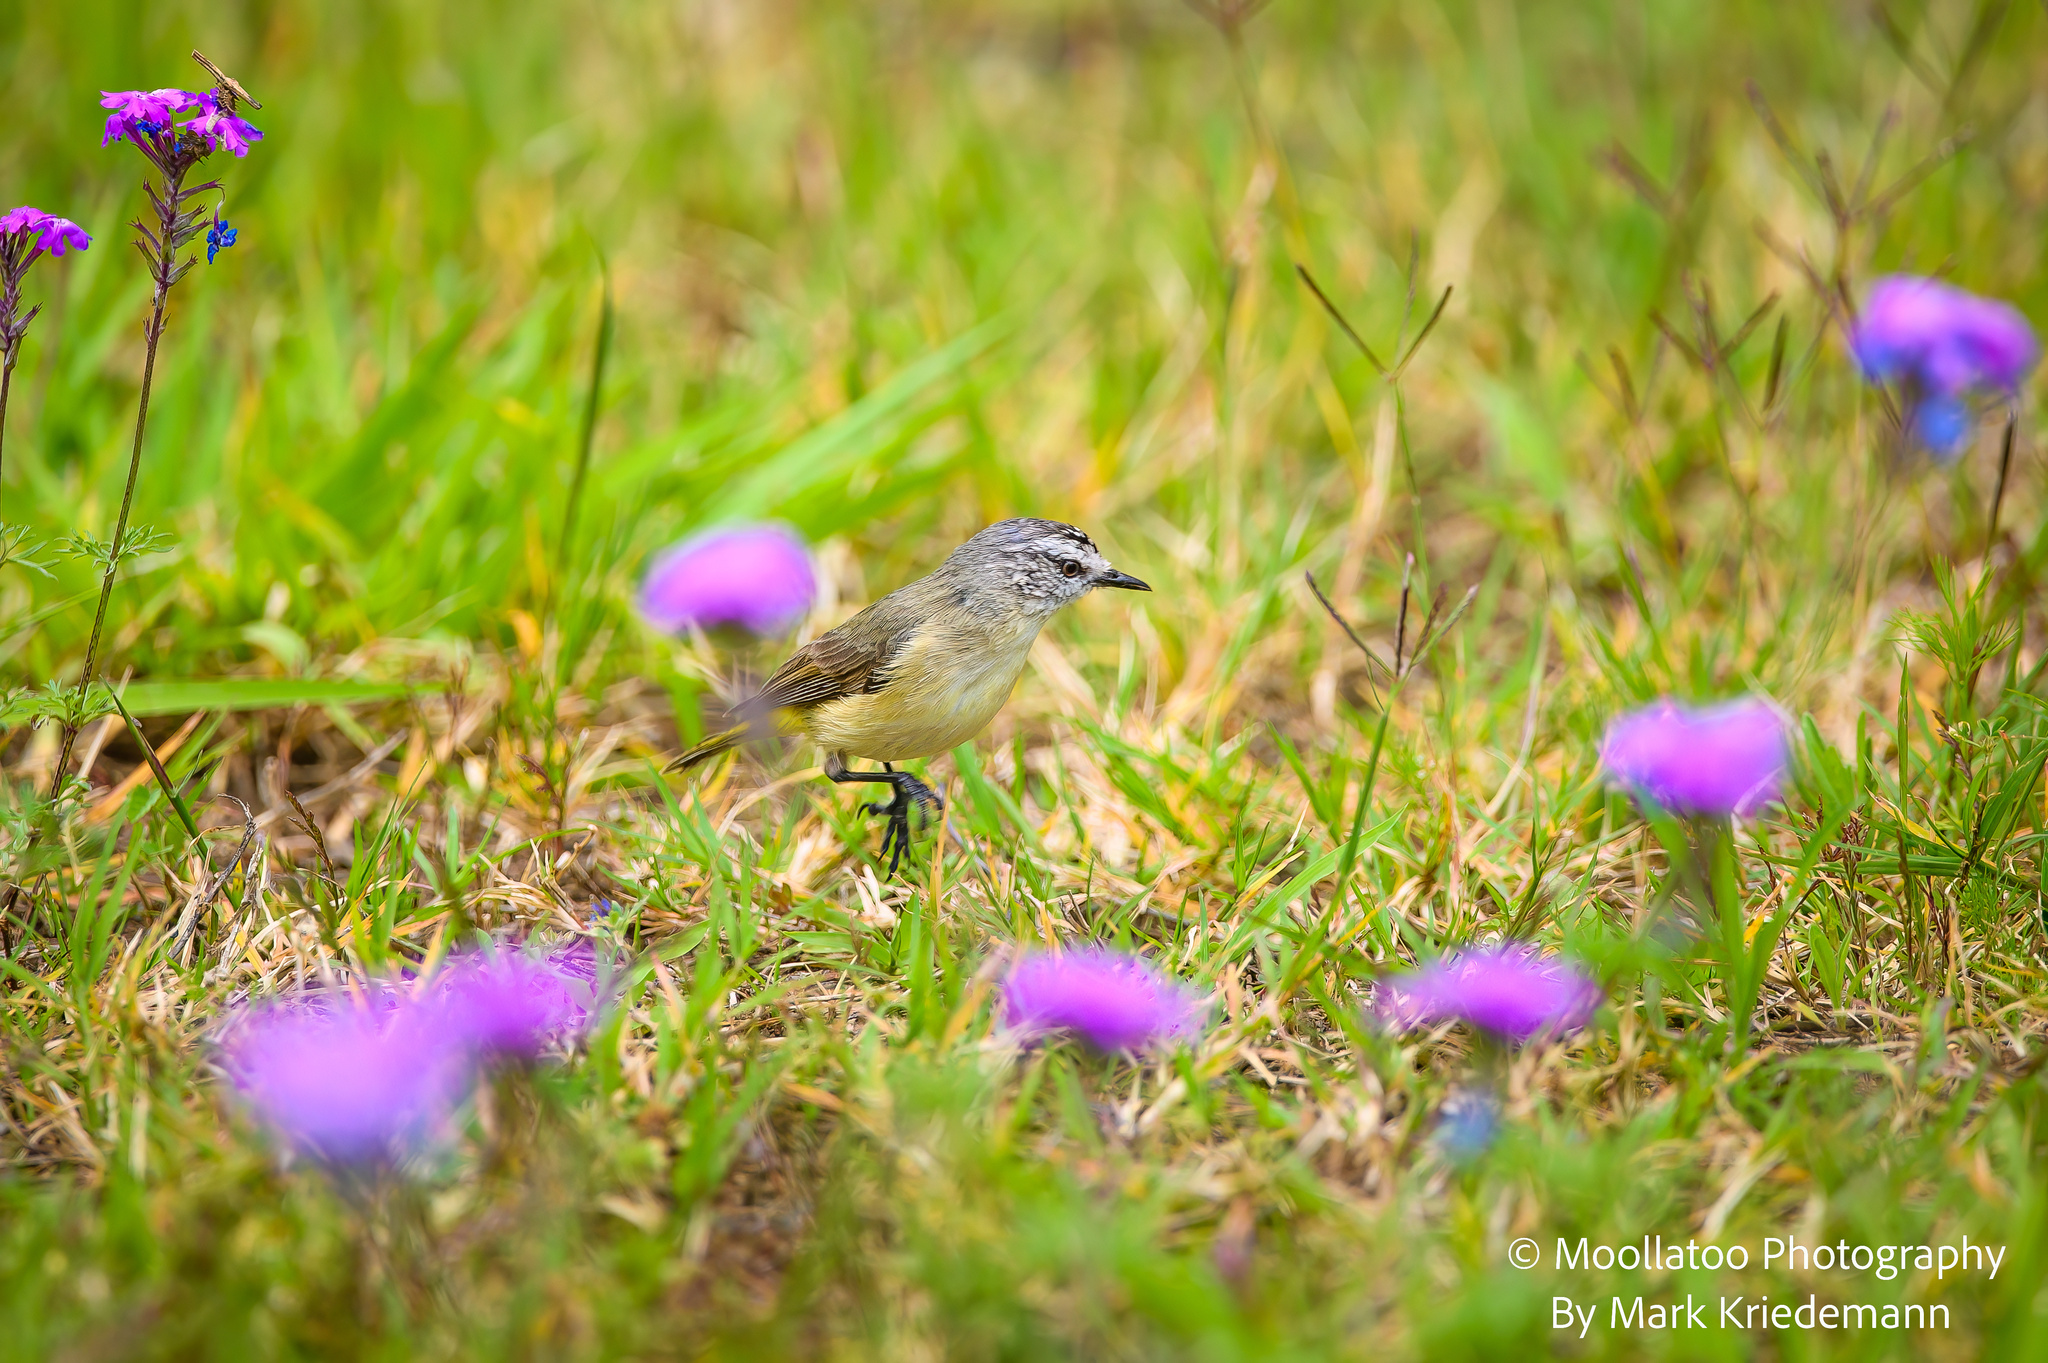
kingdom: Animalia
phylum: Chordata
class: Aves
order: Passeriformes
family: Acanthizidae
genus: Acanthiza
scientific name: Acanthiza chrysorrhoa
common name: Yellow-rumped thornbill
